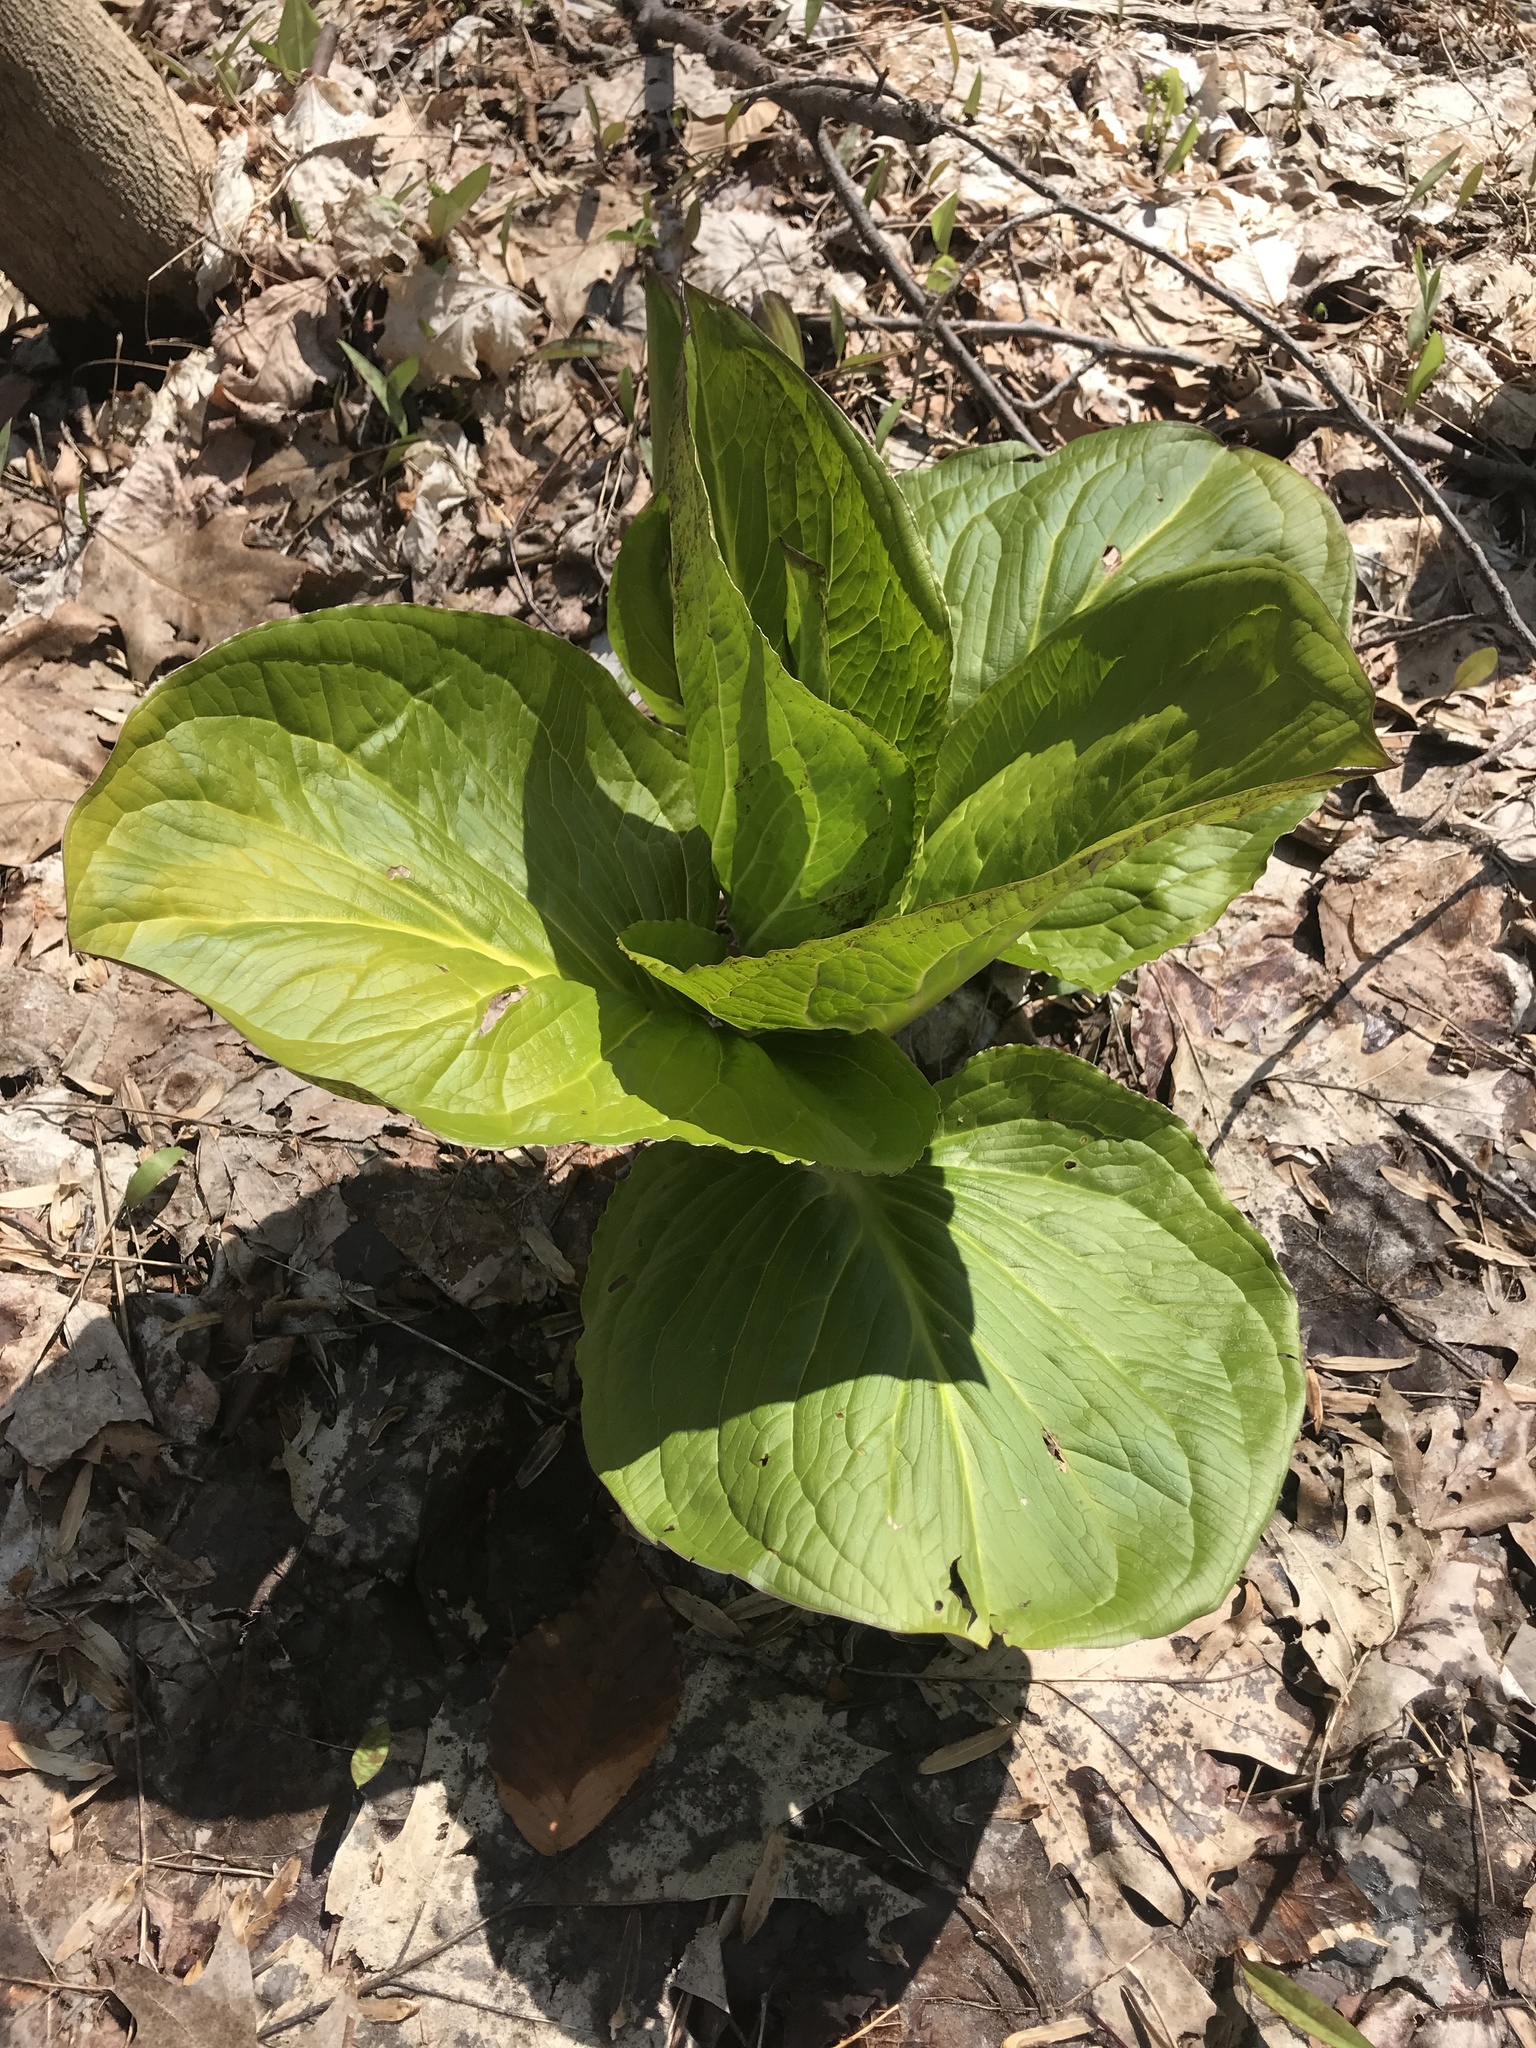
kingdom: Plantae
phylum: Tracheophyta
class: Liliopsida
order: Alismatales
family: Araceae
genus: Symplocarpus
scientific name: Symplocarpus foetidus
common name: Eastern skunk cabbage
